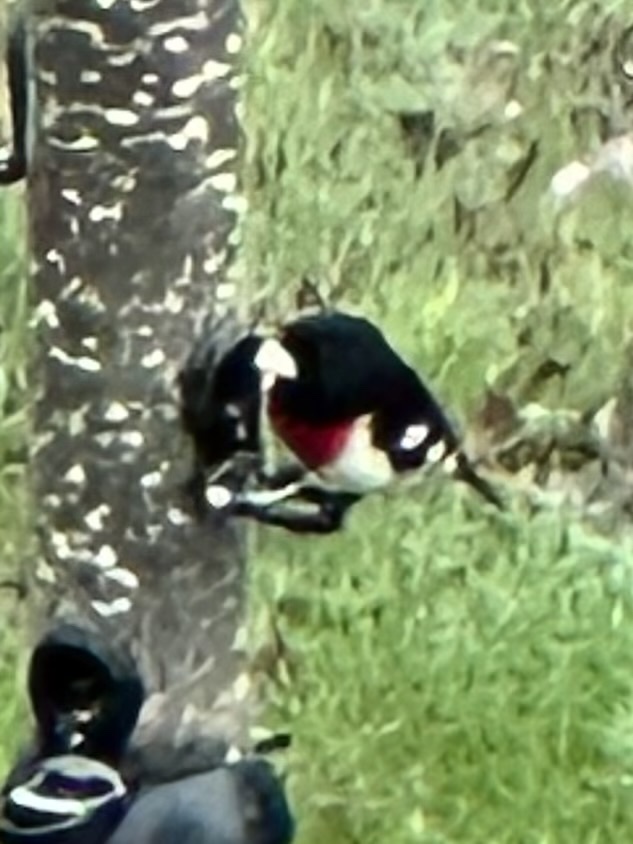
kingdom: Animalia
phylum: Chordata
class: Aves
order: Passeriformes
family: Cardinalidae
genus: Pheucticus
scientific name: Pheucticus ludovicianus
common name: Rose-breasted grosbeak
